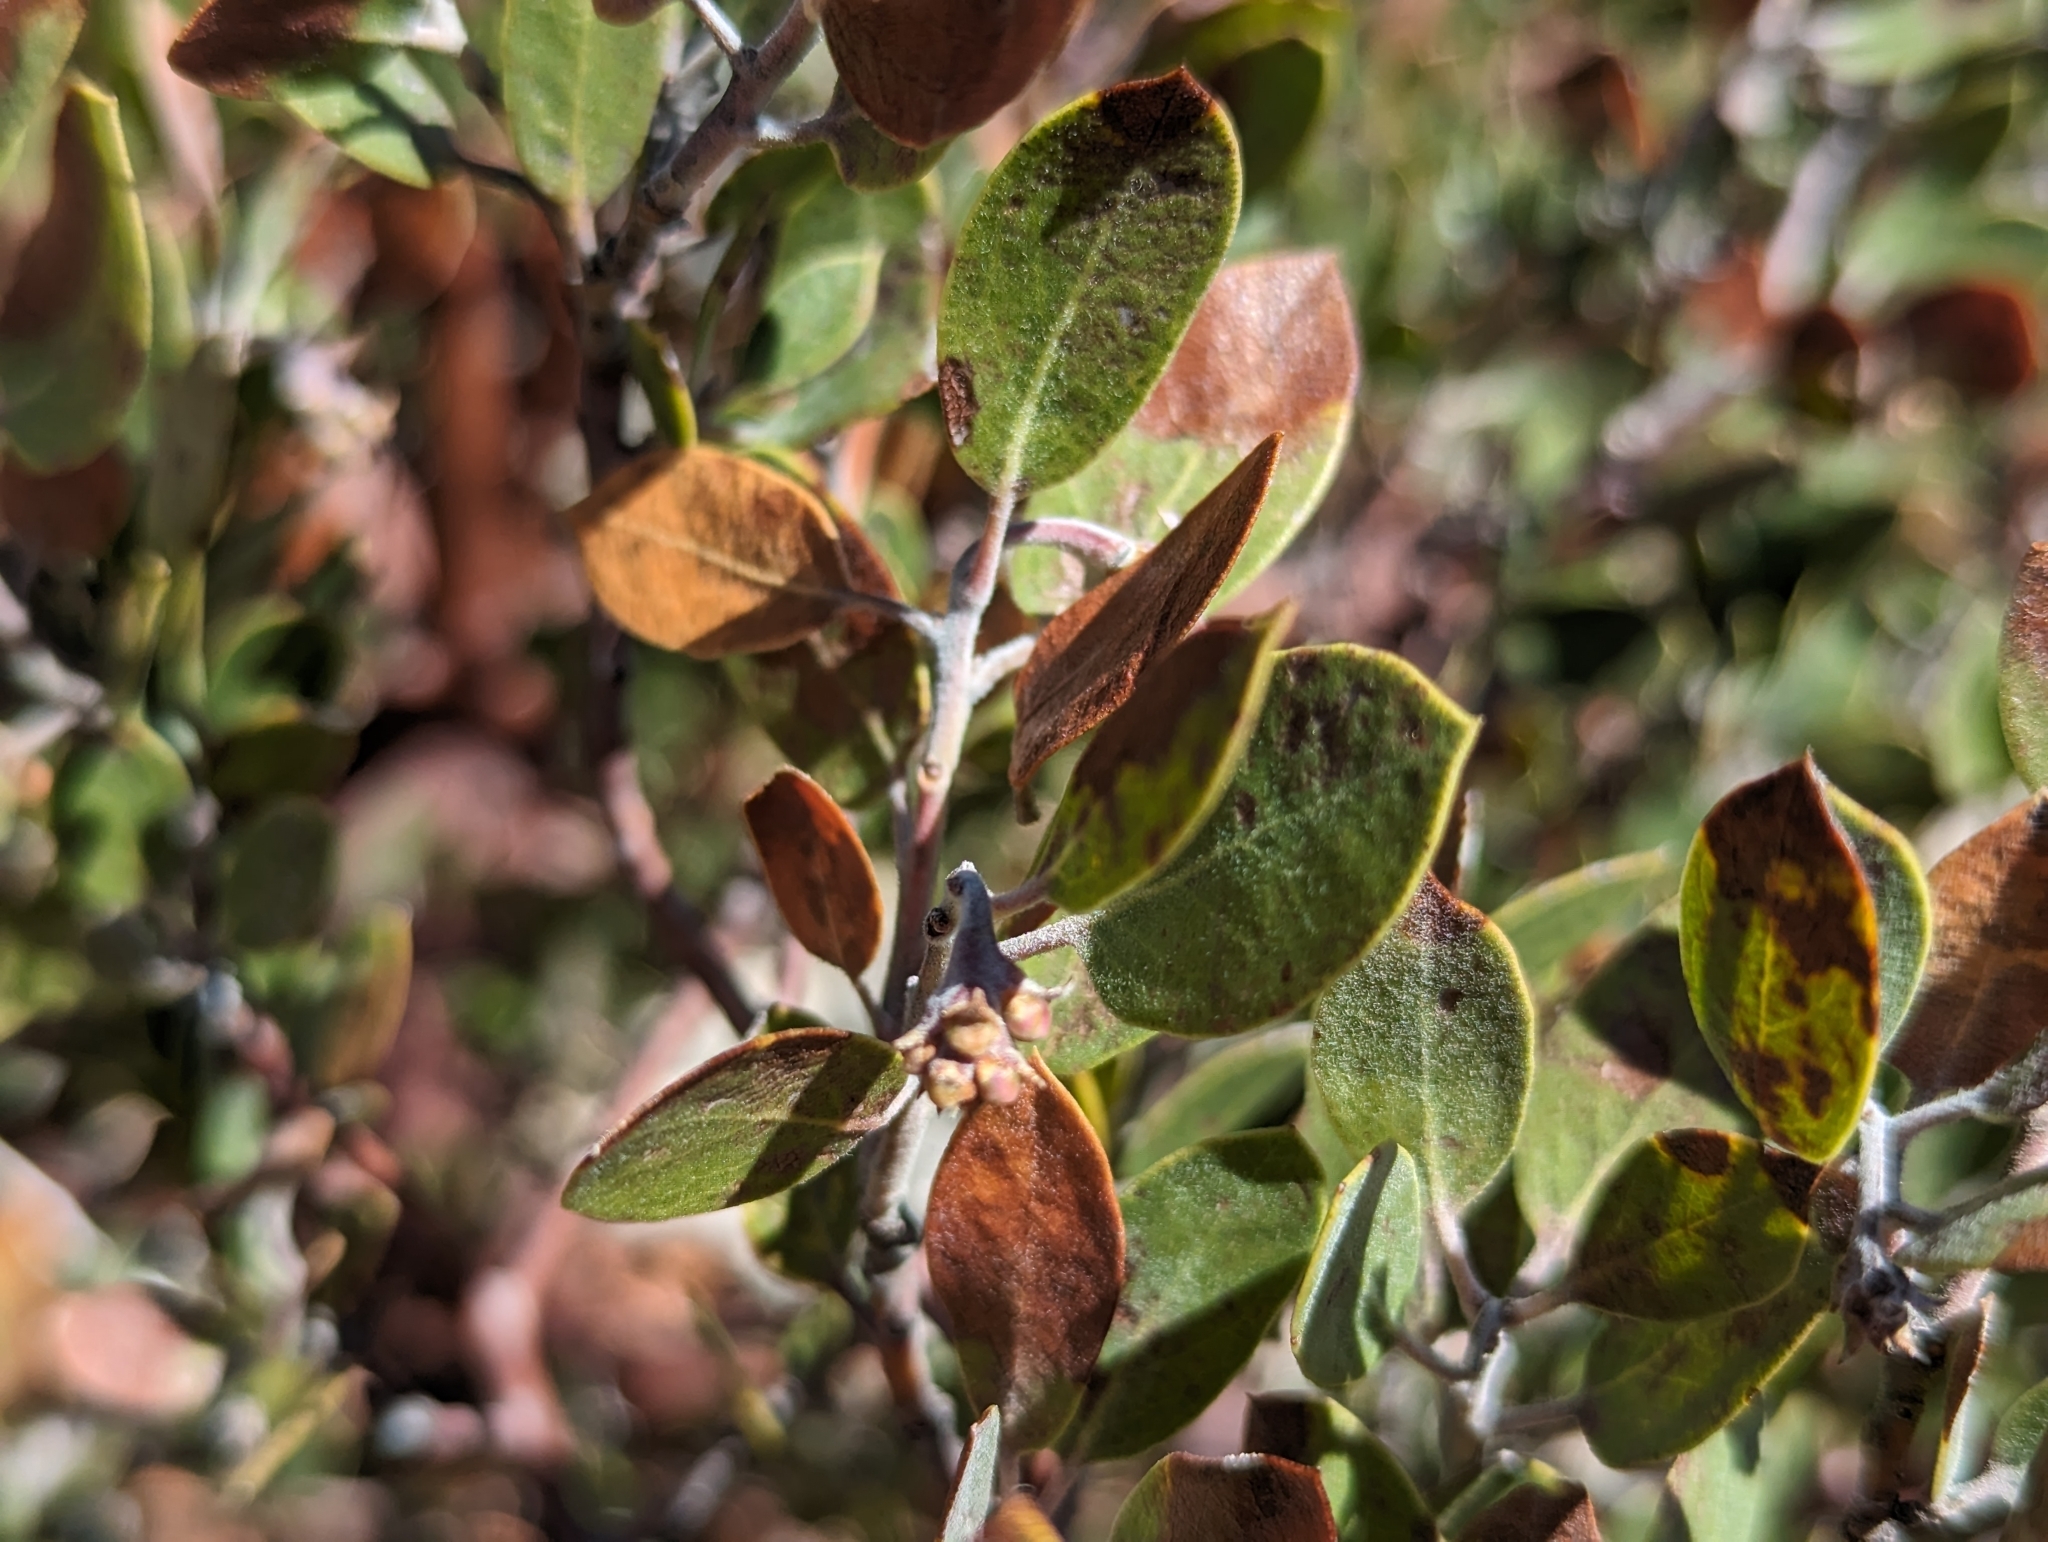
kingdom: Plantae
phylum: Tracheophyta
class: Magnoliopsida
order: Ericales
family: Ericaceae
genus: Arctostaphylos
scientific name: Arctostaphylos pungens
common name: Mexican manzanita
